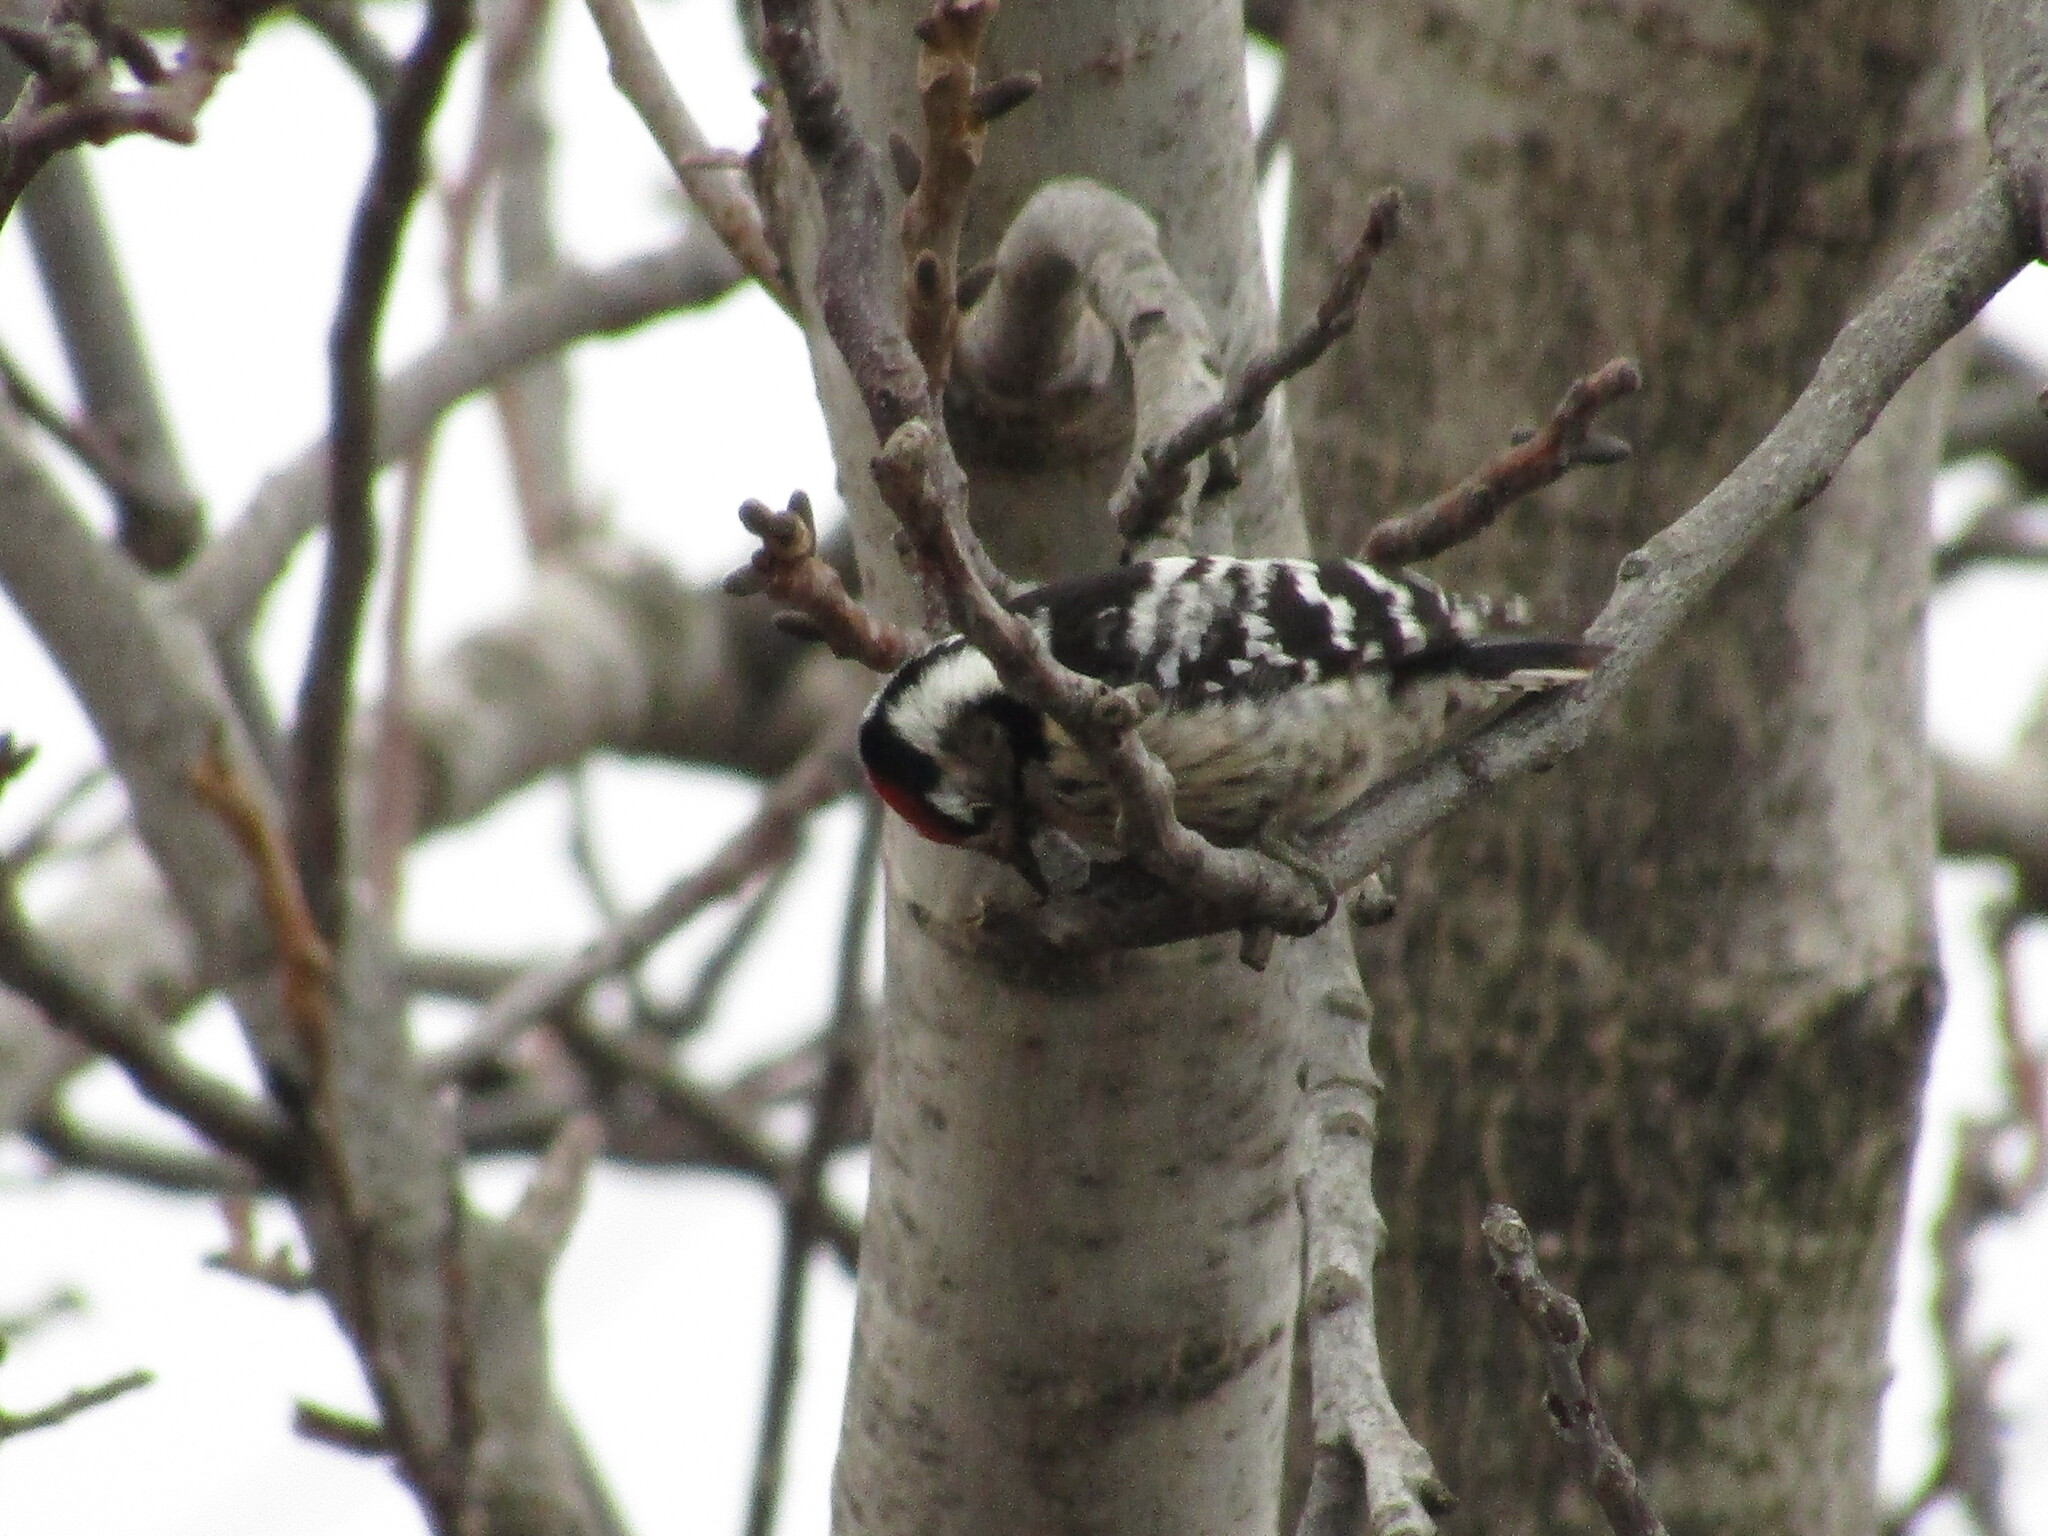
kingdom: Animalia
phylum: Chordata
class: Aves
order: Piciformes
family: Picidae
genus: Dryobates
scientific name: Dryobates minor
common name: Lesser spotted woodpecker
